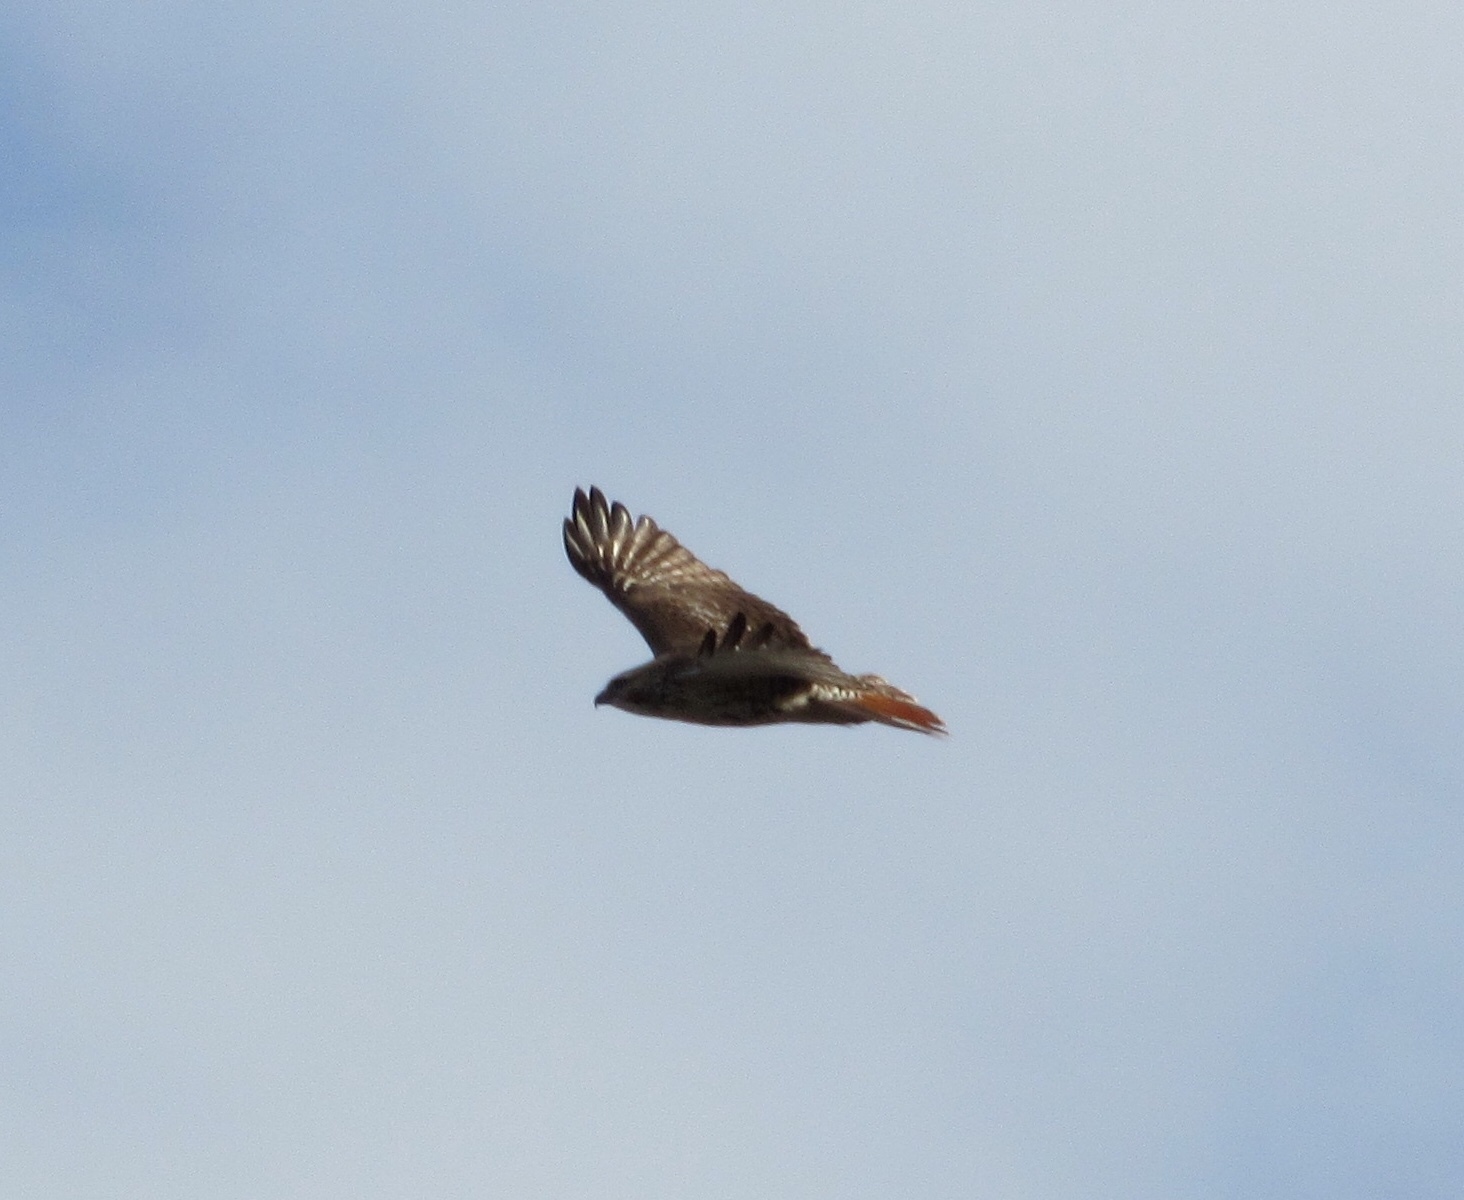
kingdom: Animalia
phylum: Chordata
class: Aves
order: Accipitriformes
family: Accipitridae
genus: Buteo
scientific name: Buteo jamaicensis
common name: Red-tailed hawk
